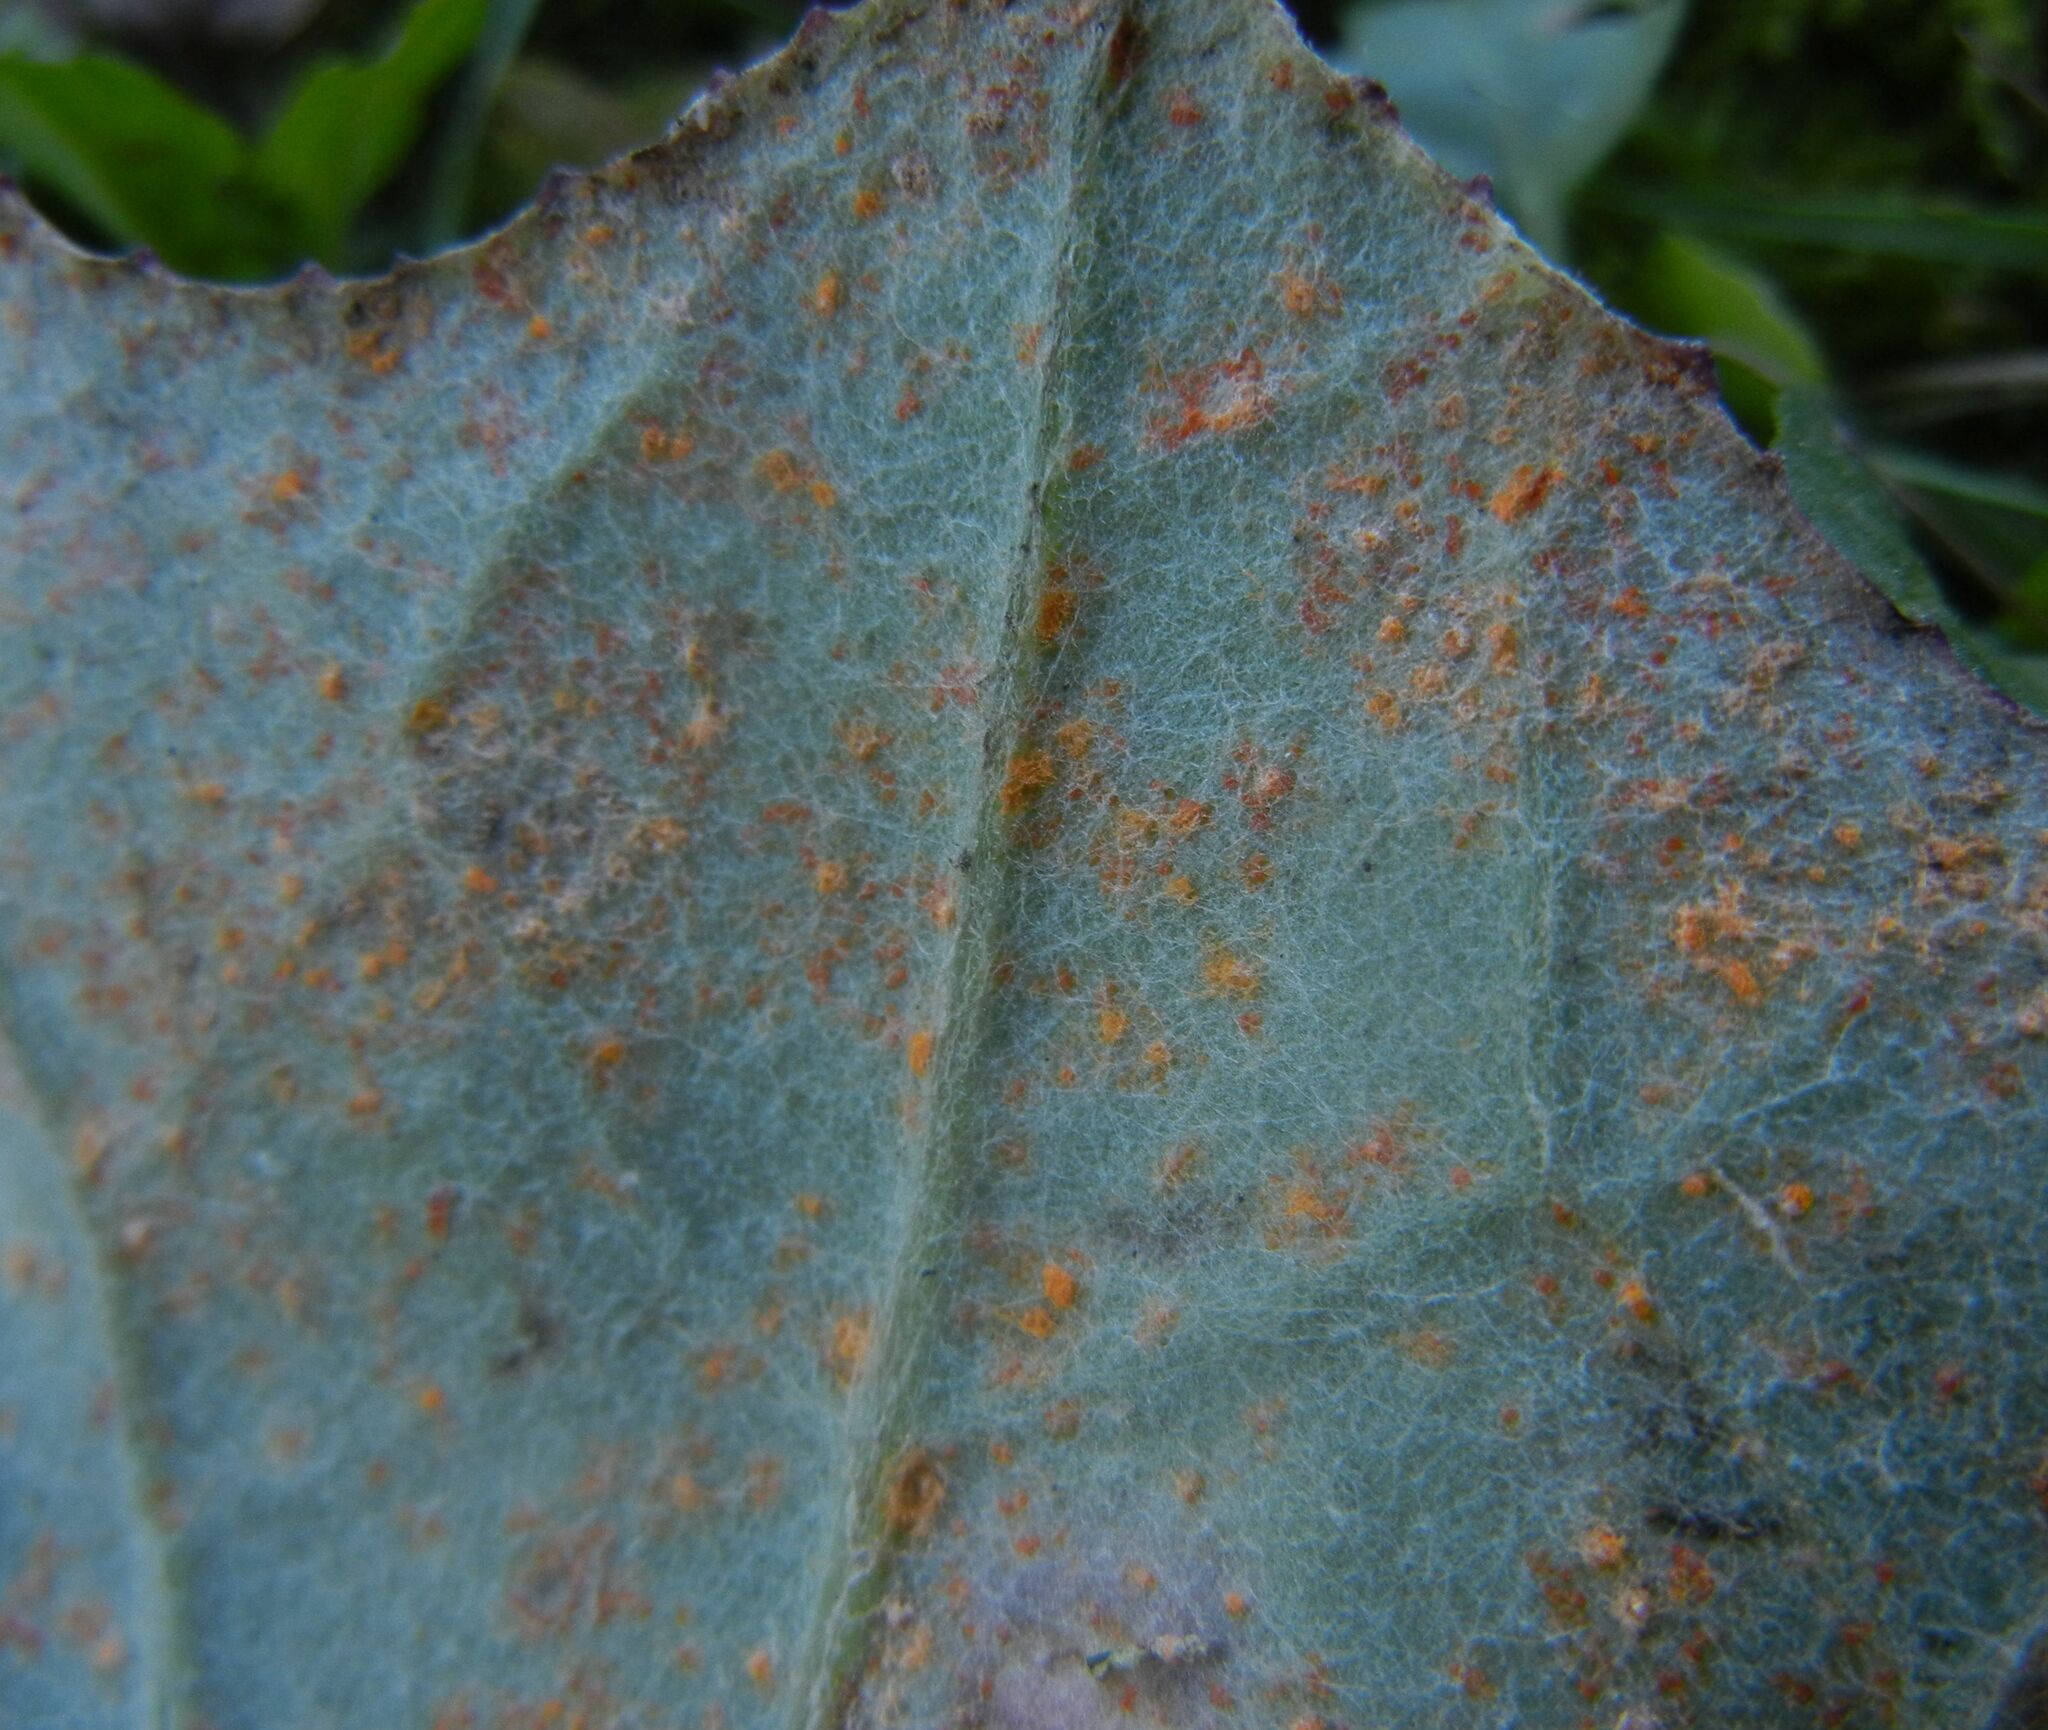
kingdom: Fungi
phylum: Basidiomycota
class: Pucciniomycetes
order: Pucciniales
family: Coleosporiaceae
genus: Coleosporium
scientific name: Coleosporium tussilaginis
